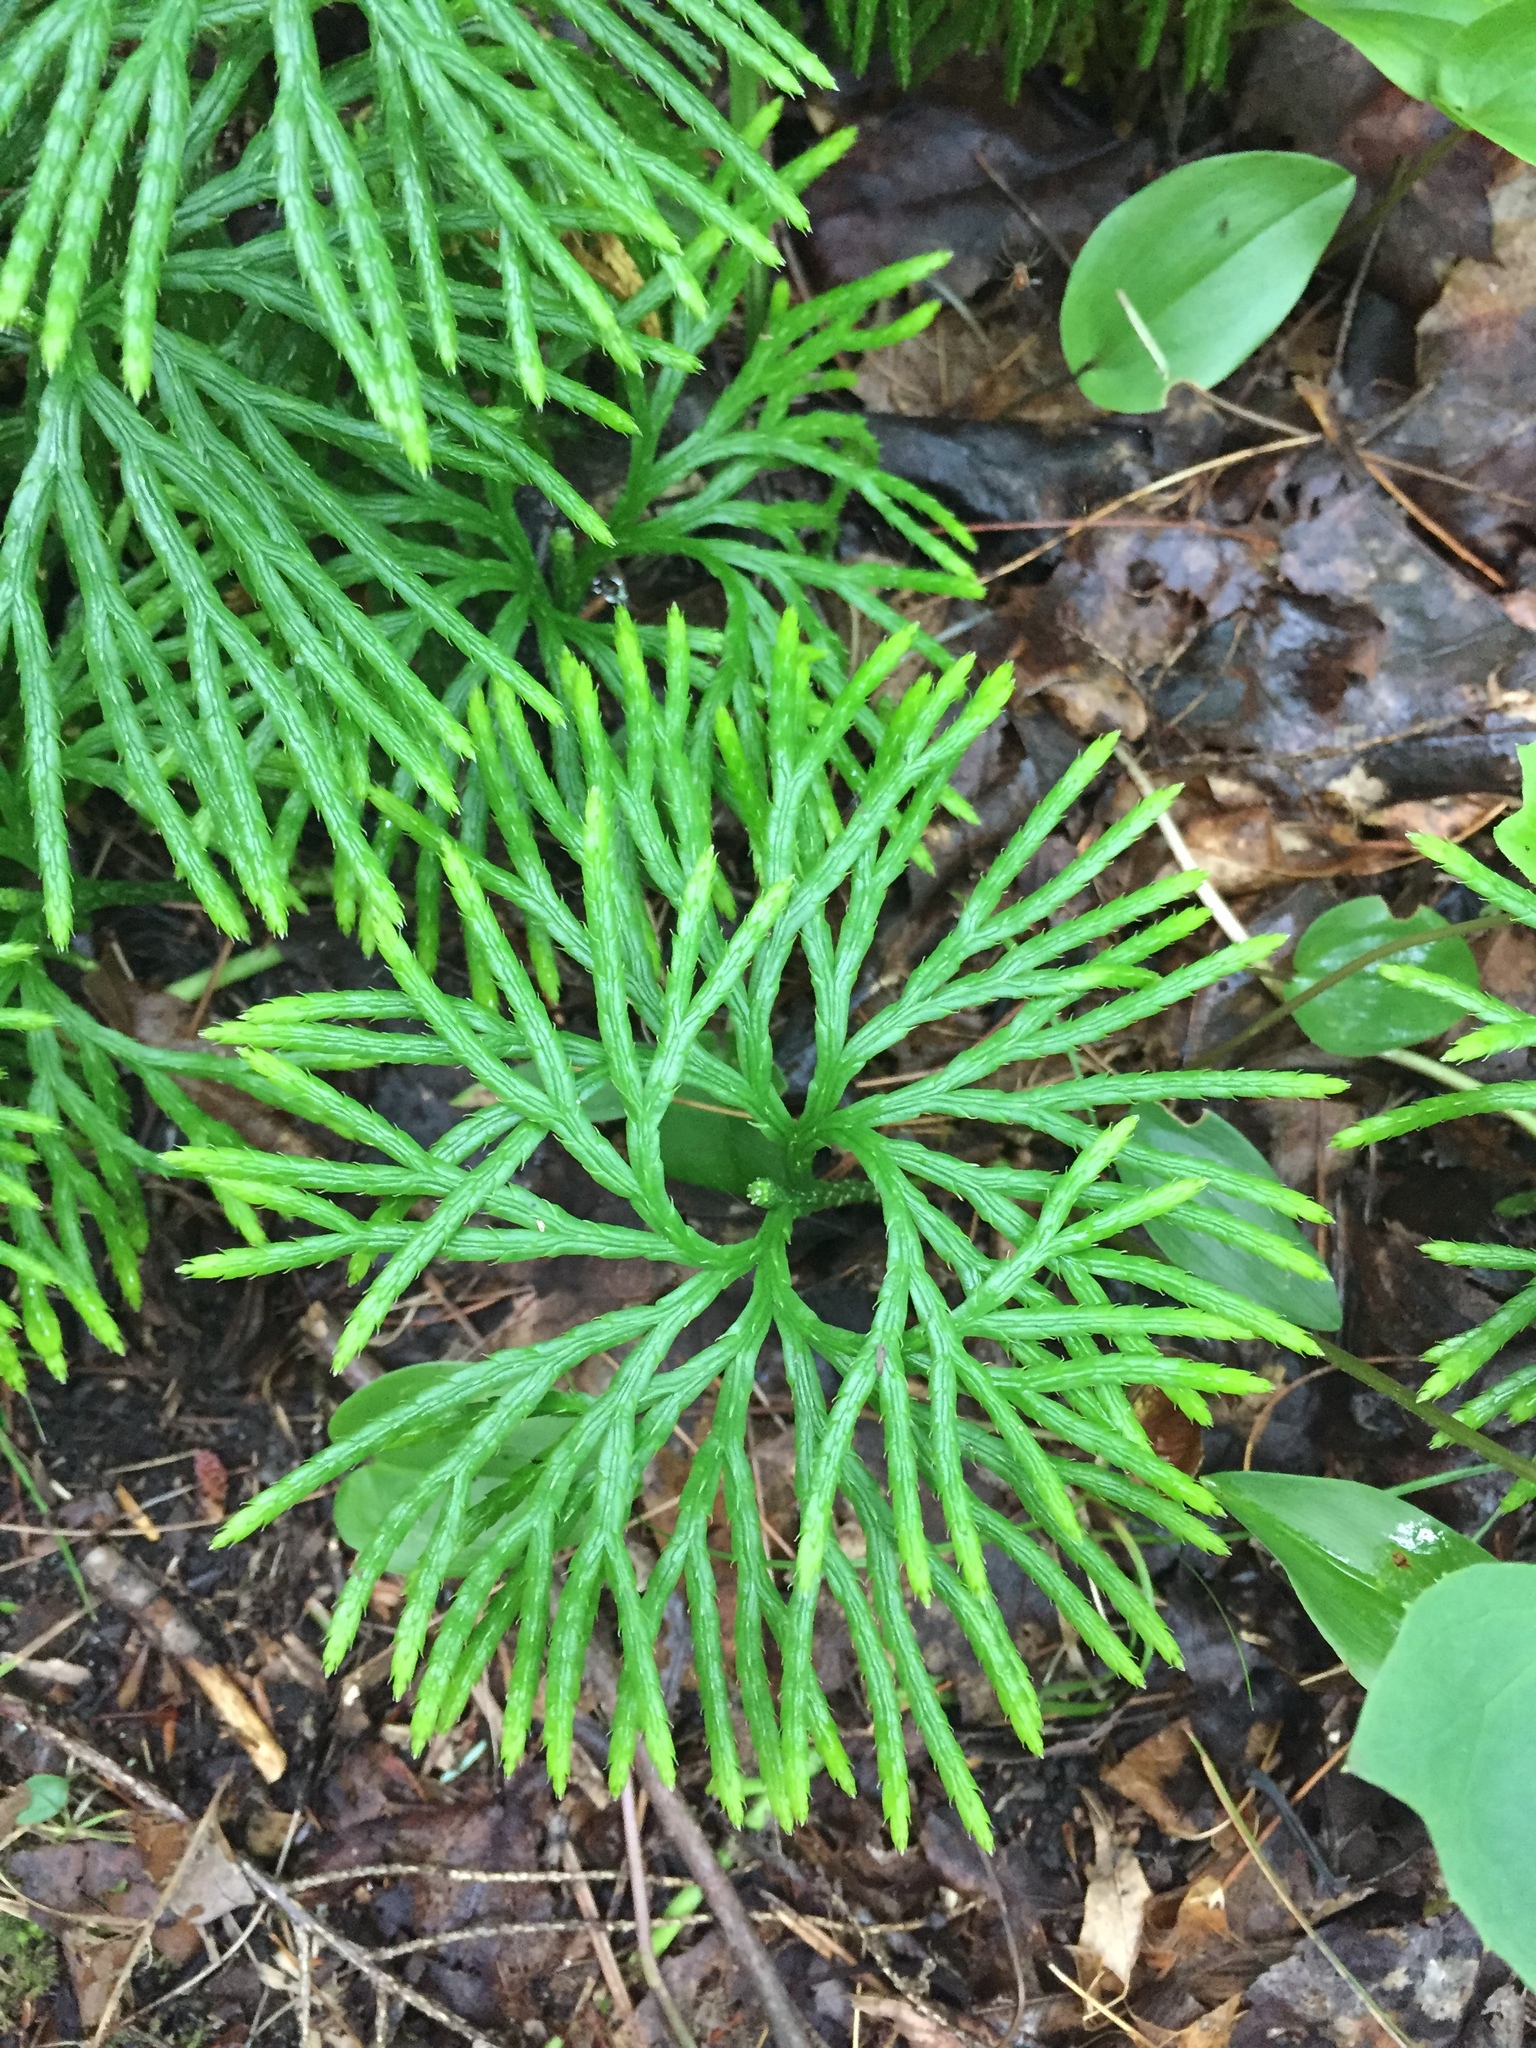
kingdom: Plantae
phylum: Tracheophyta
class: Lycopodiopsida
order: Lycopodiales
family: Lycopodiaceae
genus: Diphasiastrum
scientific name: Diphasiastrum digitatum
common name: Southern running-pine
